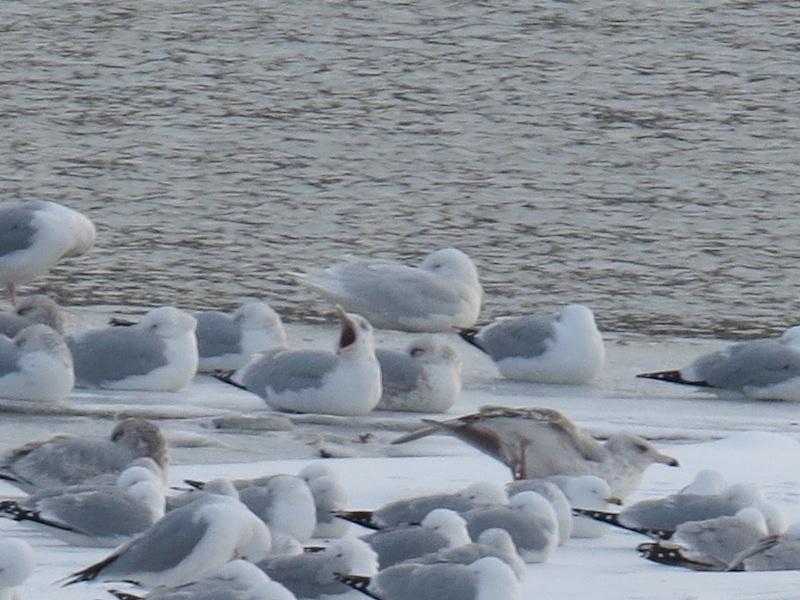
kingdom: Animalia
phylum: Chordata
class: Aves
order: Charadriiformes
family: Laridae
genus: Larus
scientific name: Larus hyperboreus
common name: Glaucous gull
